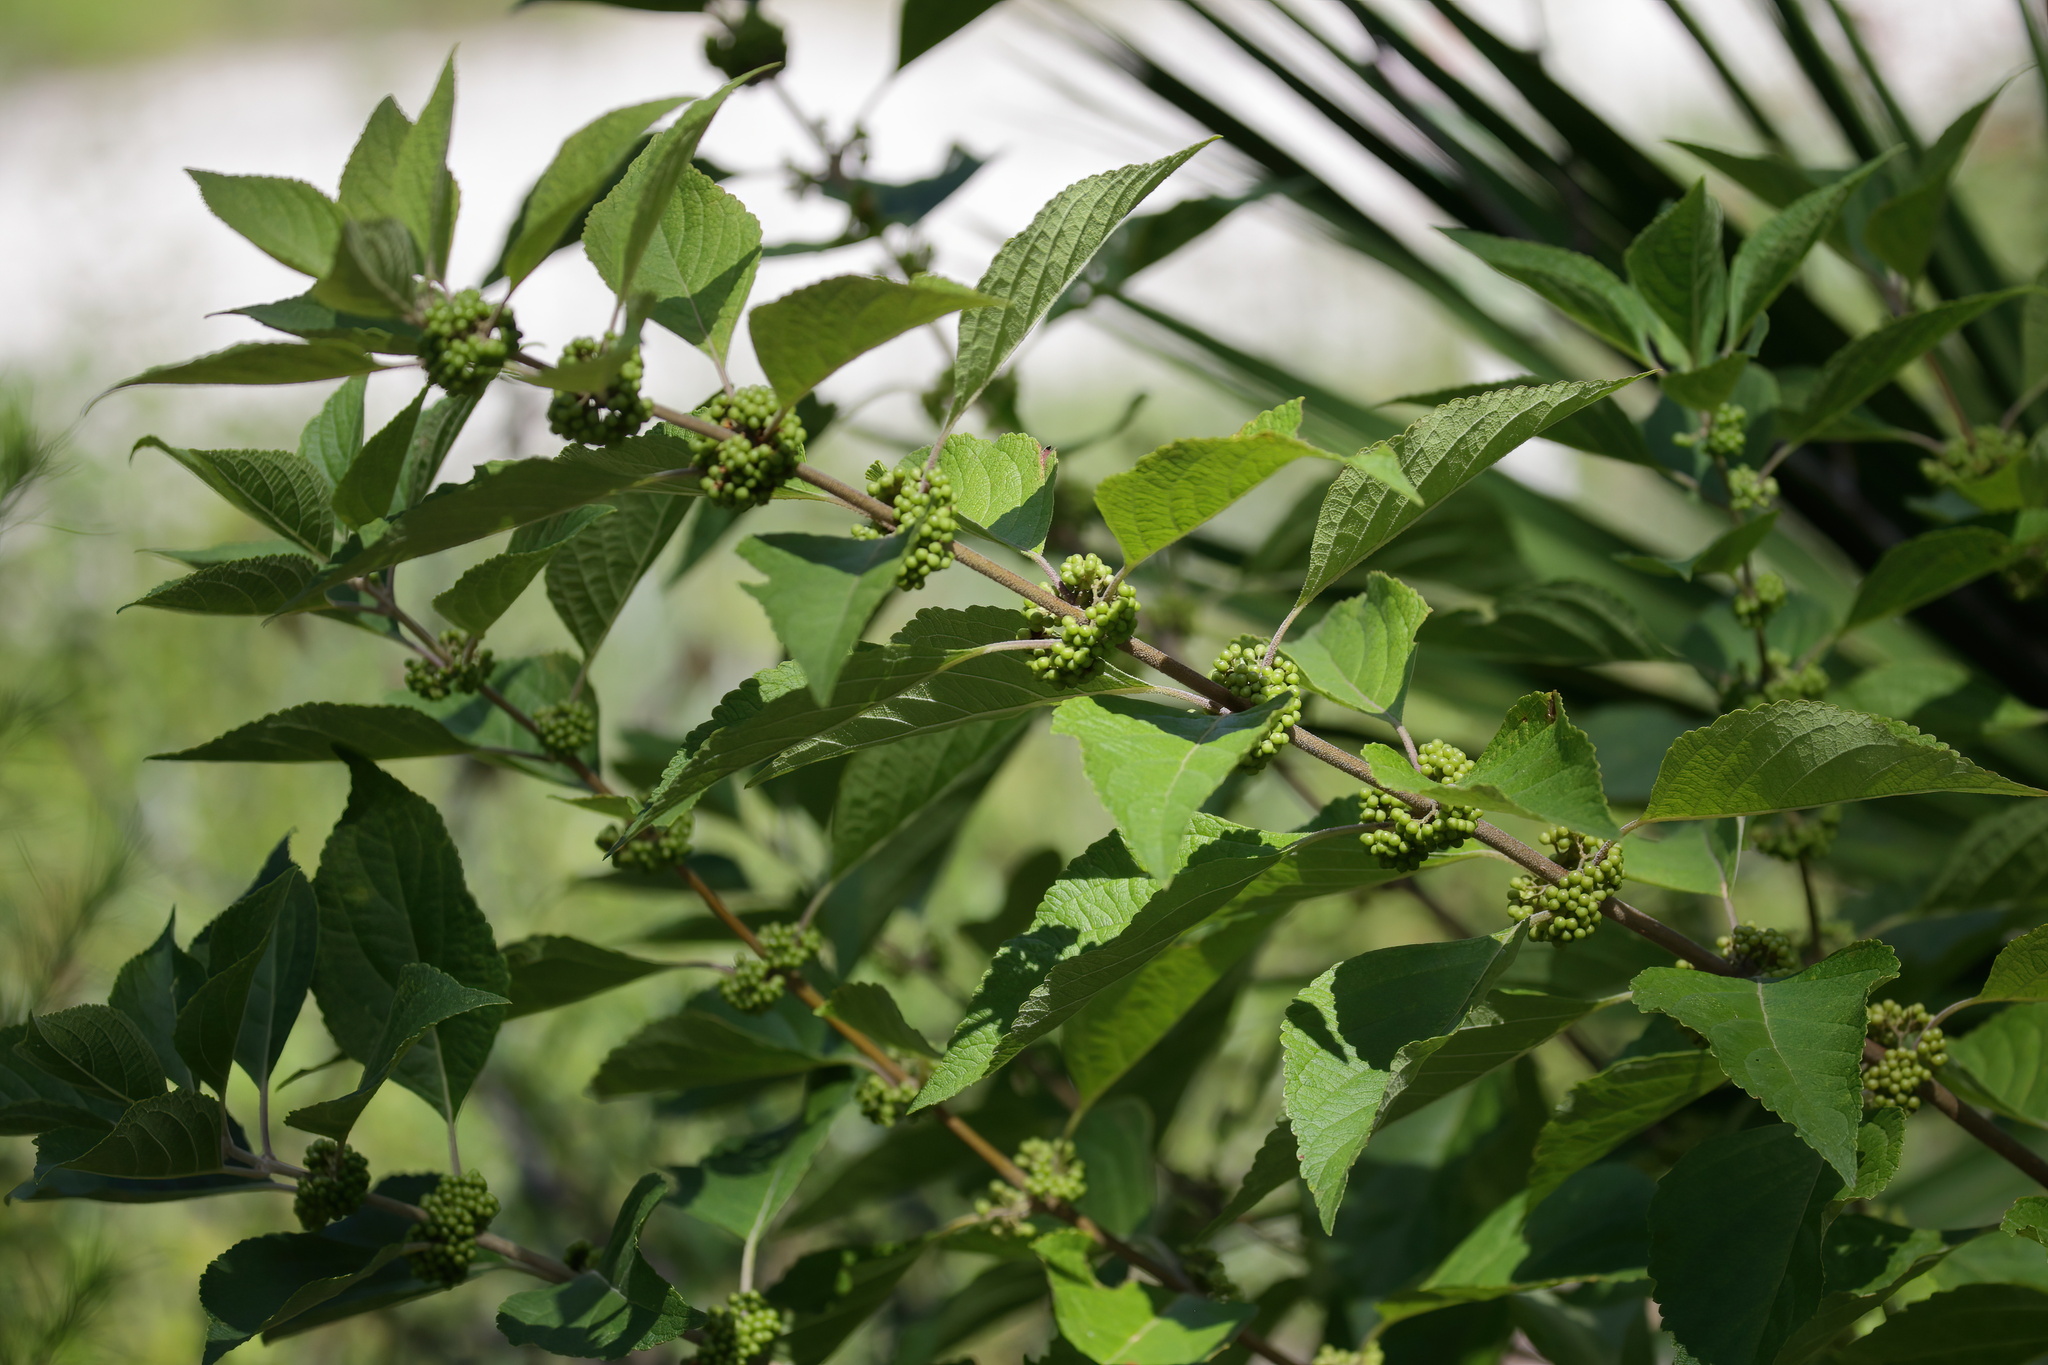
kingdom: Plantae
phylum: Tracheophyta
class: Magnoliopsida
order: Lamiales
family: Lamiaceae
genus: Callicarpa
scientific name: Callicarpa americana
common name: American beautyberry
